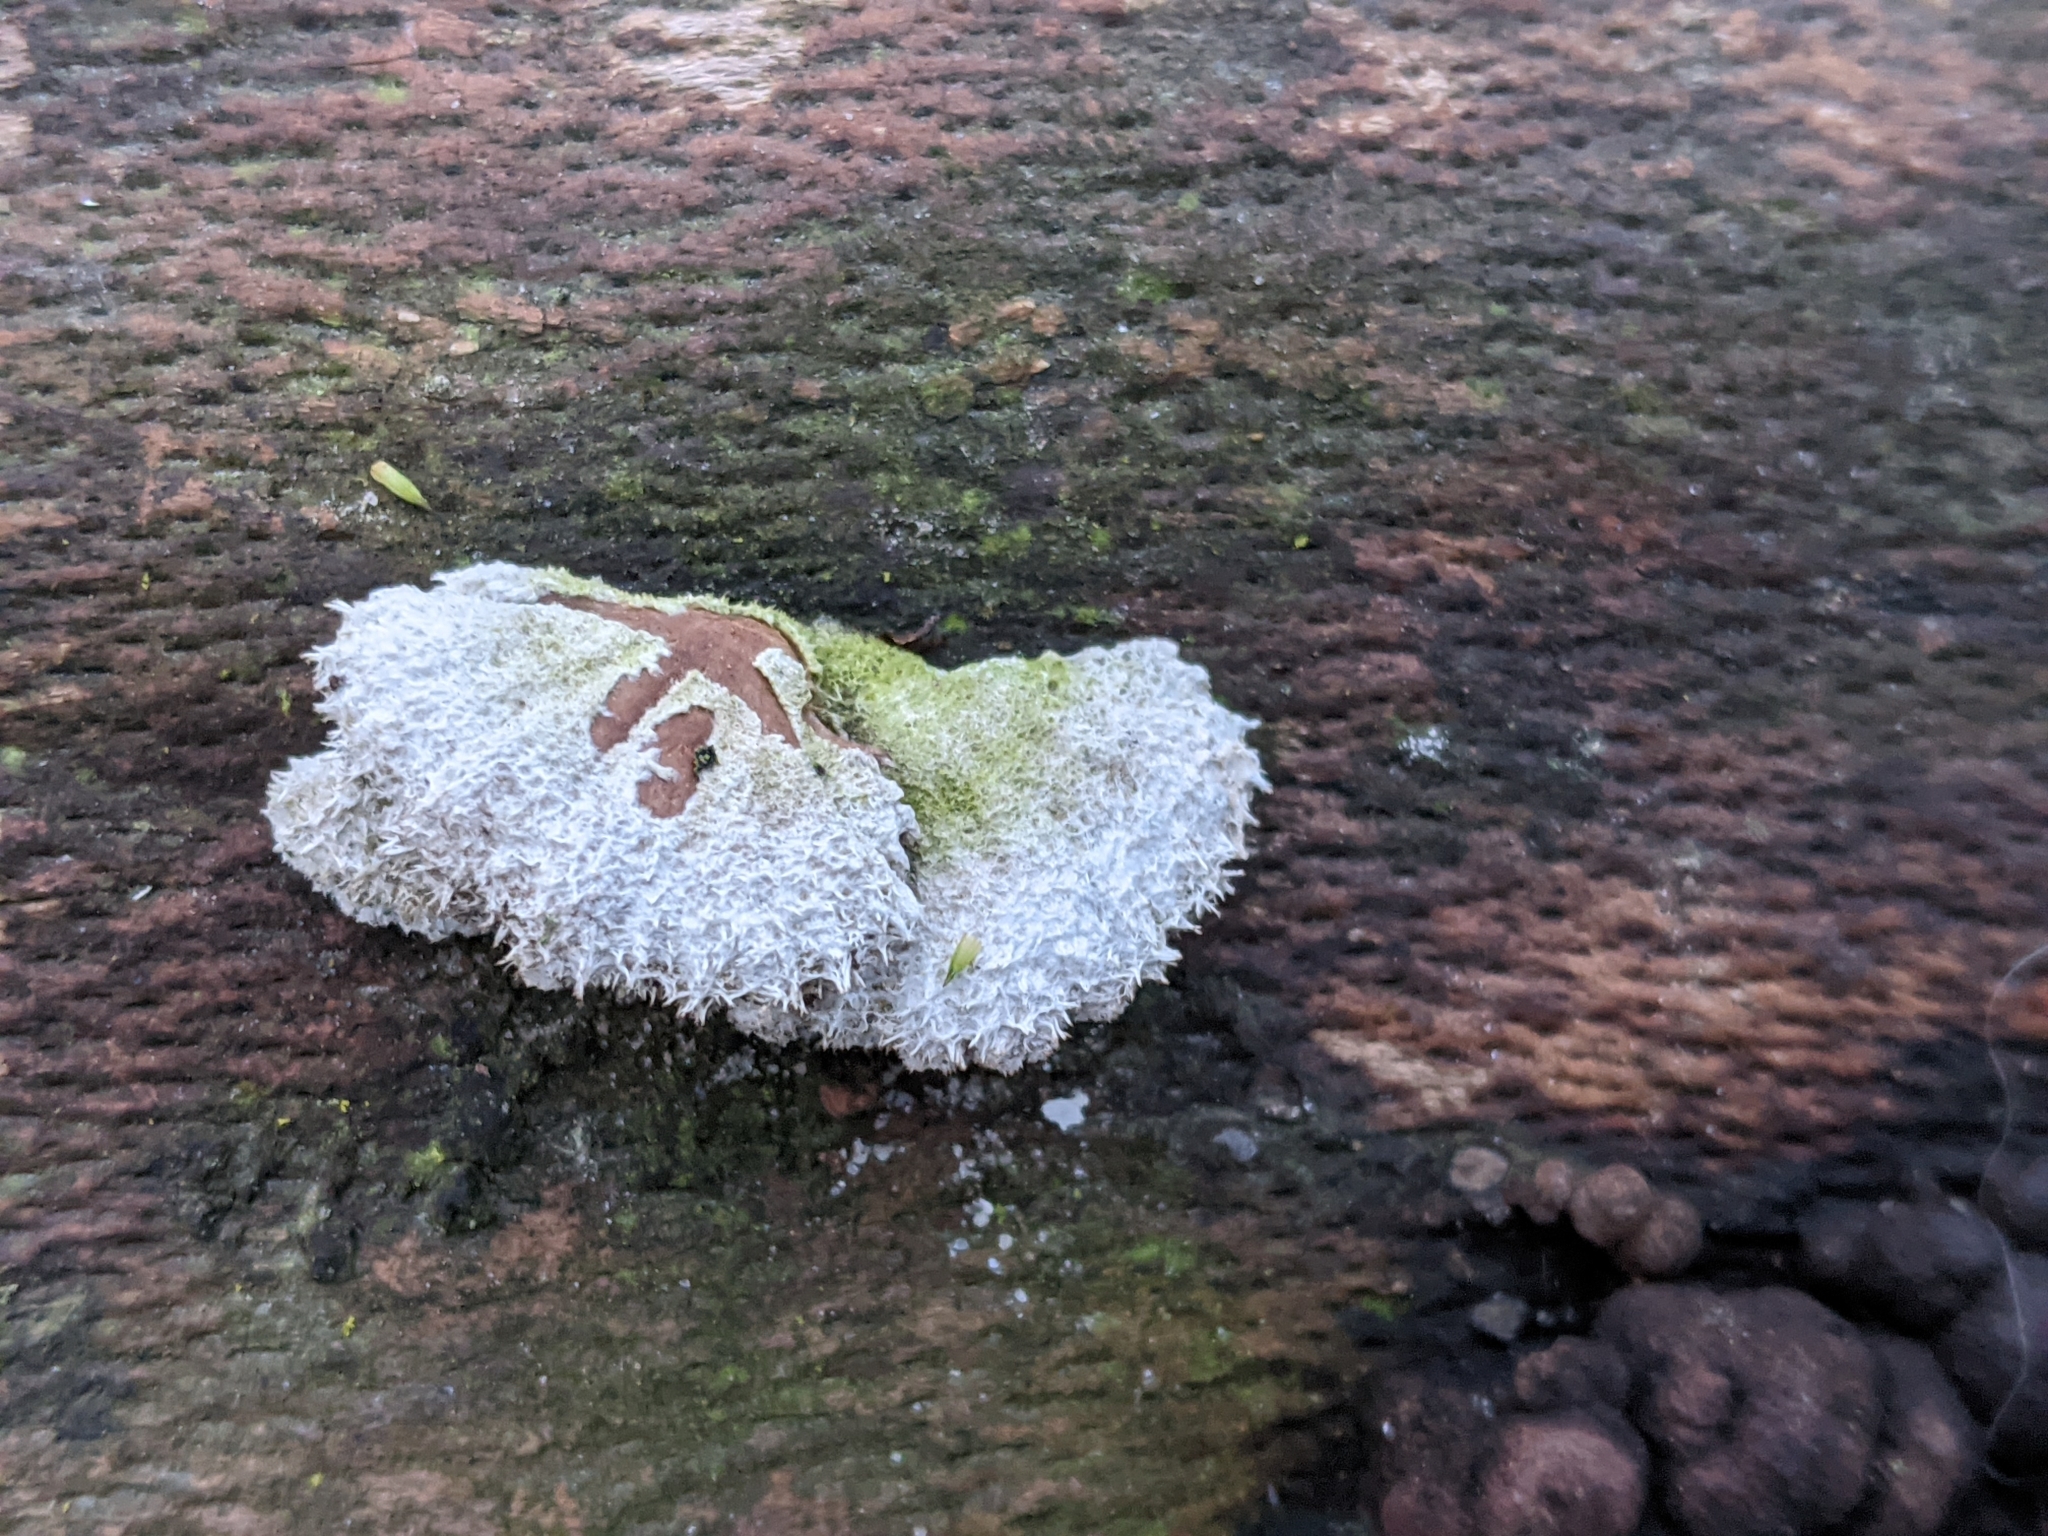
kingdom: Fungi
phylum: Basidiomycota
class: Agaricomycetes
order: Agaricales
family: Schizophyllaceae
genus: Schizophyllum
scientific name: Schizophyllum commune
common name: Common porecrust
